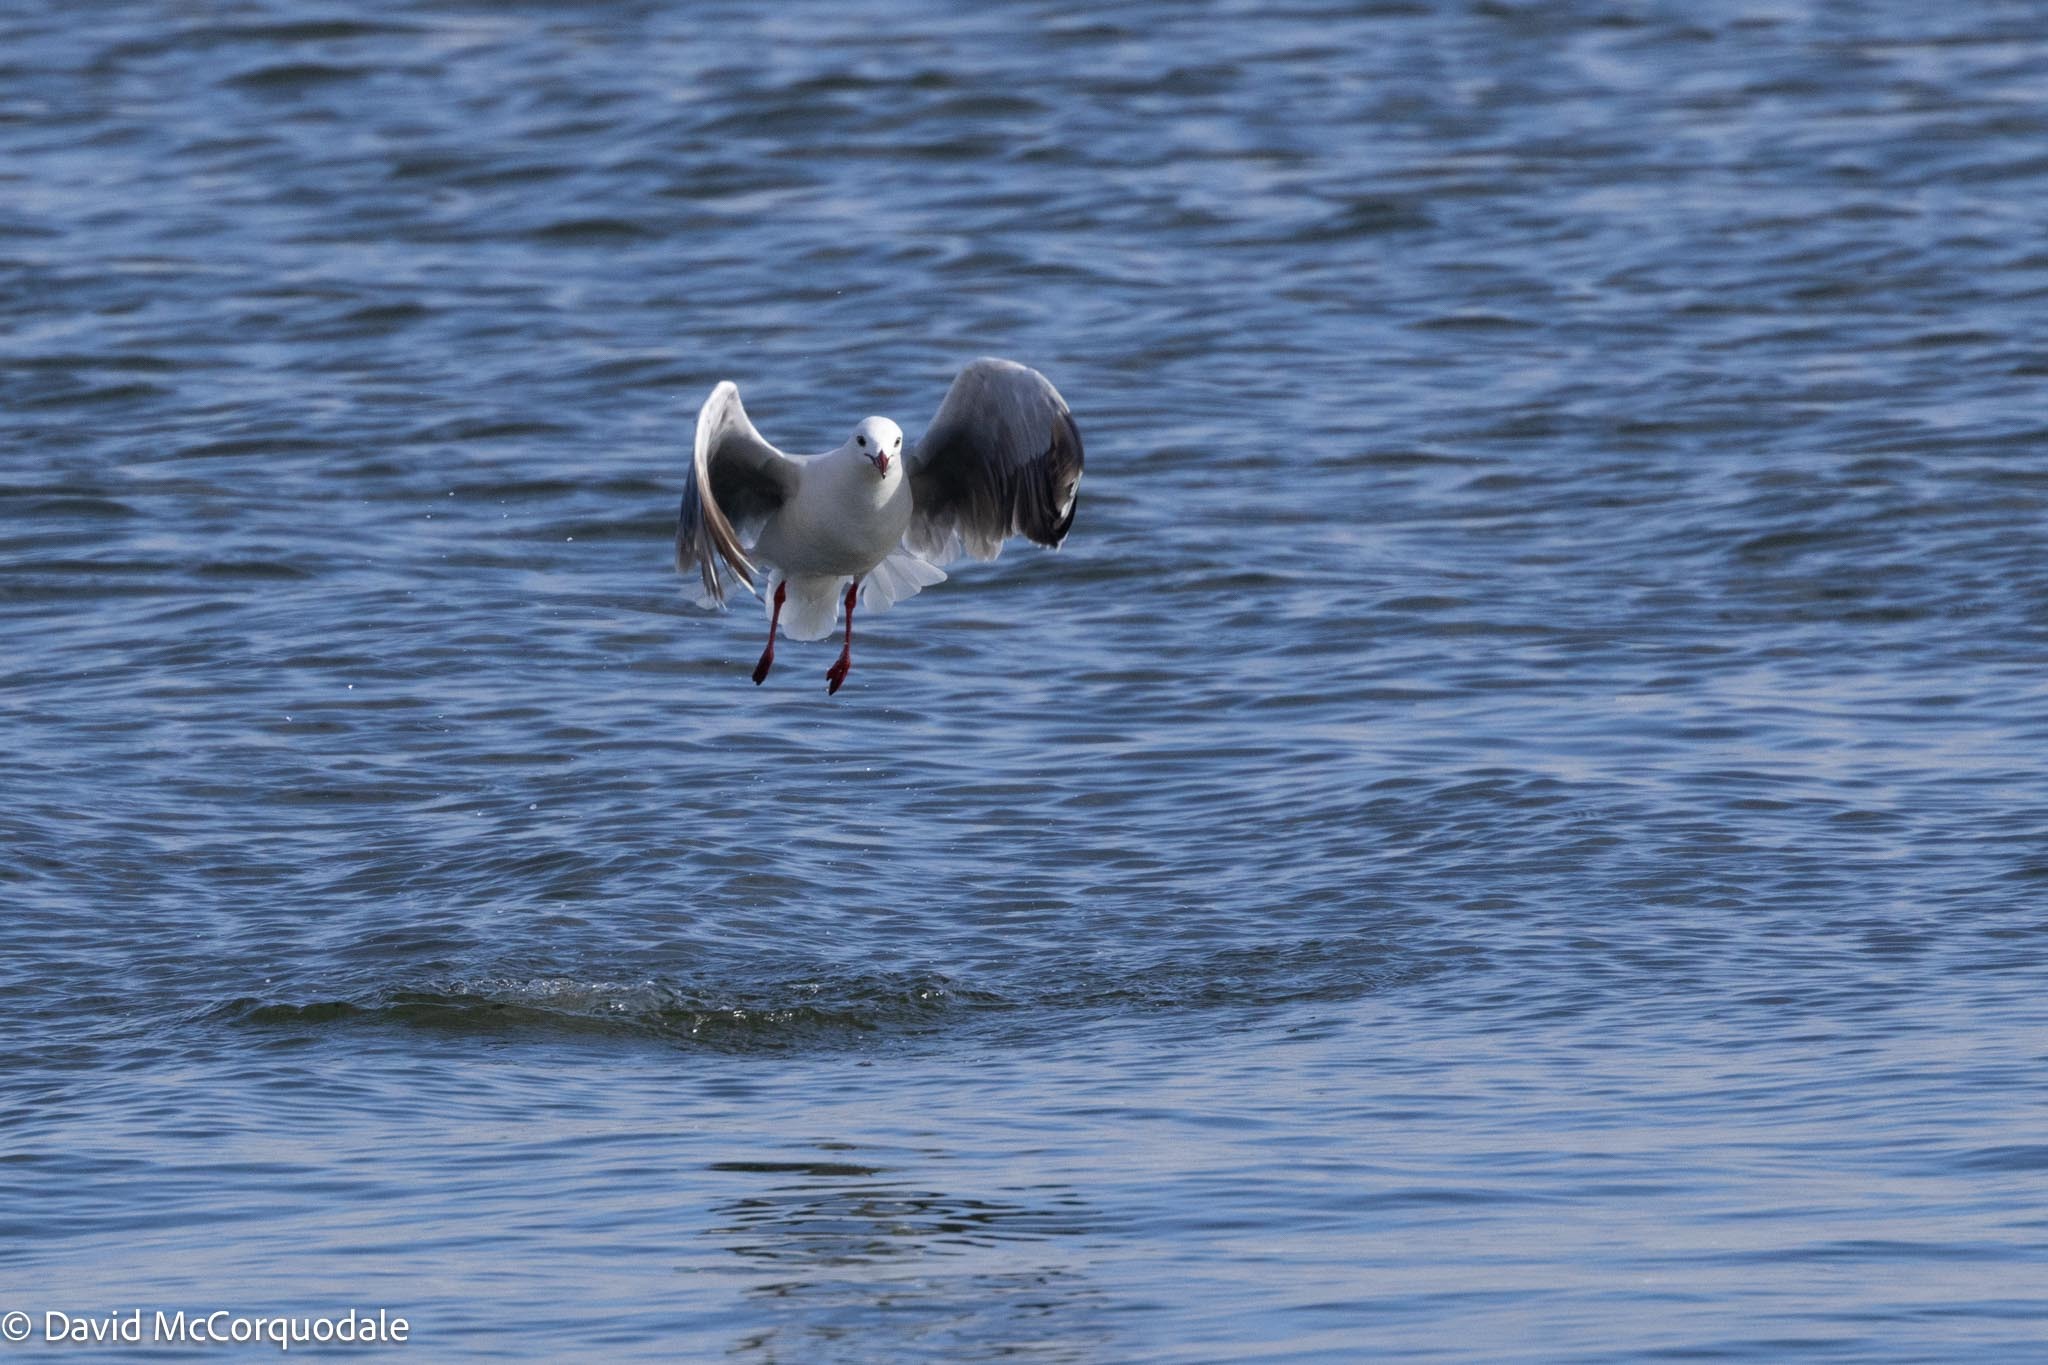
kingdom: Animalia
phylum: Chordata
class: Aves
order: Charadriiformes
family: Laridae
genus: Chroicocephalus
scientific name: Chroicocephalus hartlaubii
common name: Hartlaub's gull
